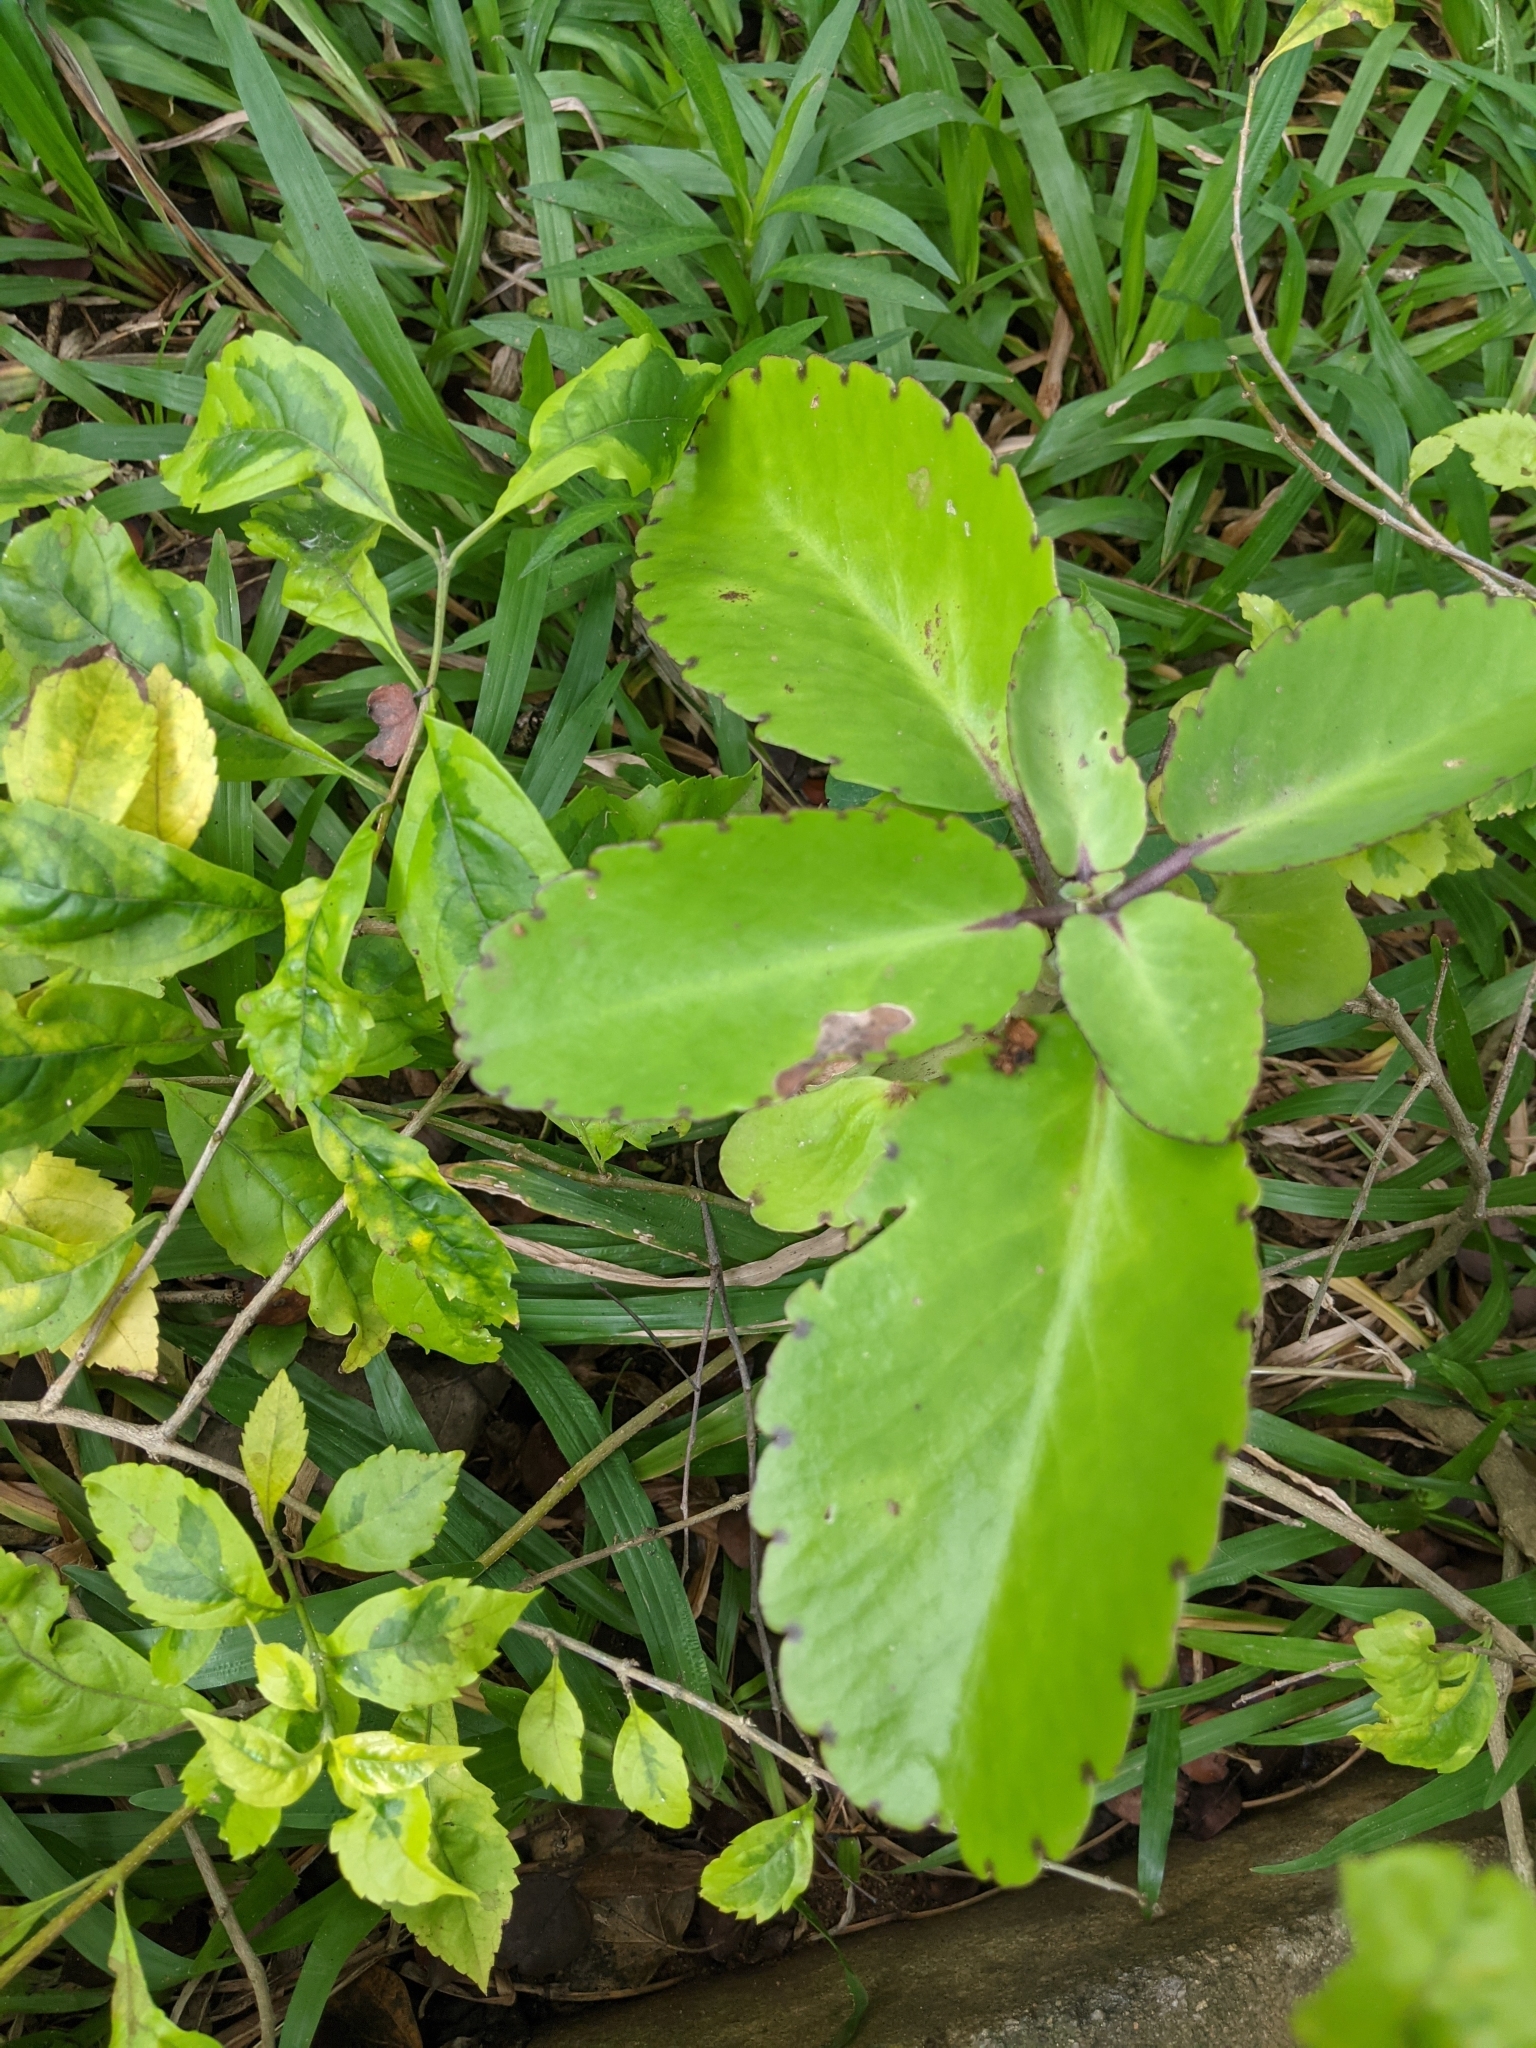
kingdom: Plantae
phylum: Tracheophyta
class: Magnoliopsida
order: Saxifragales
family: Crassulaceae
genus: Kalanchoe
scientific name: Kalanchoe pinnata
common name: Cathedral bells
